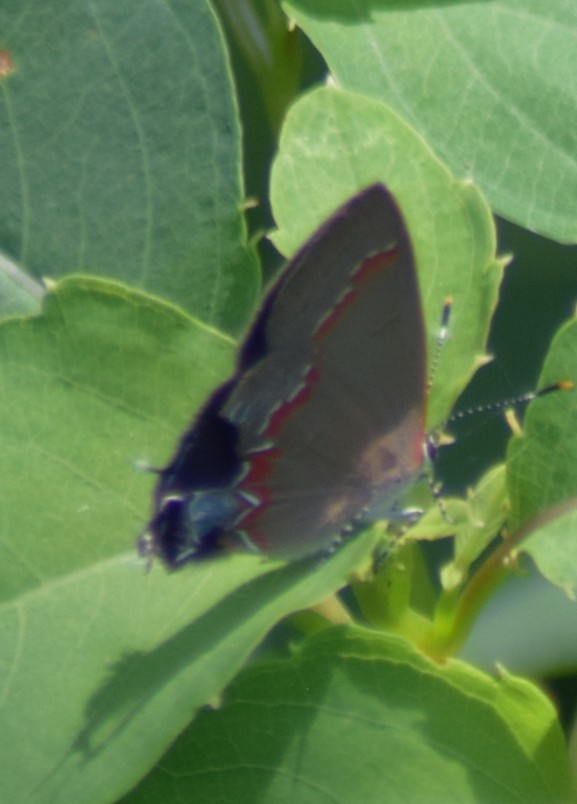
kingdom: Animalia
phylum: Arthropoda
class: Insecta
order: Lepidoptera
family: Lycaenidae
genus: Calycopis
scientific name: Calycopis cecrops
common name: Red-banded hairstreak
